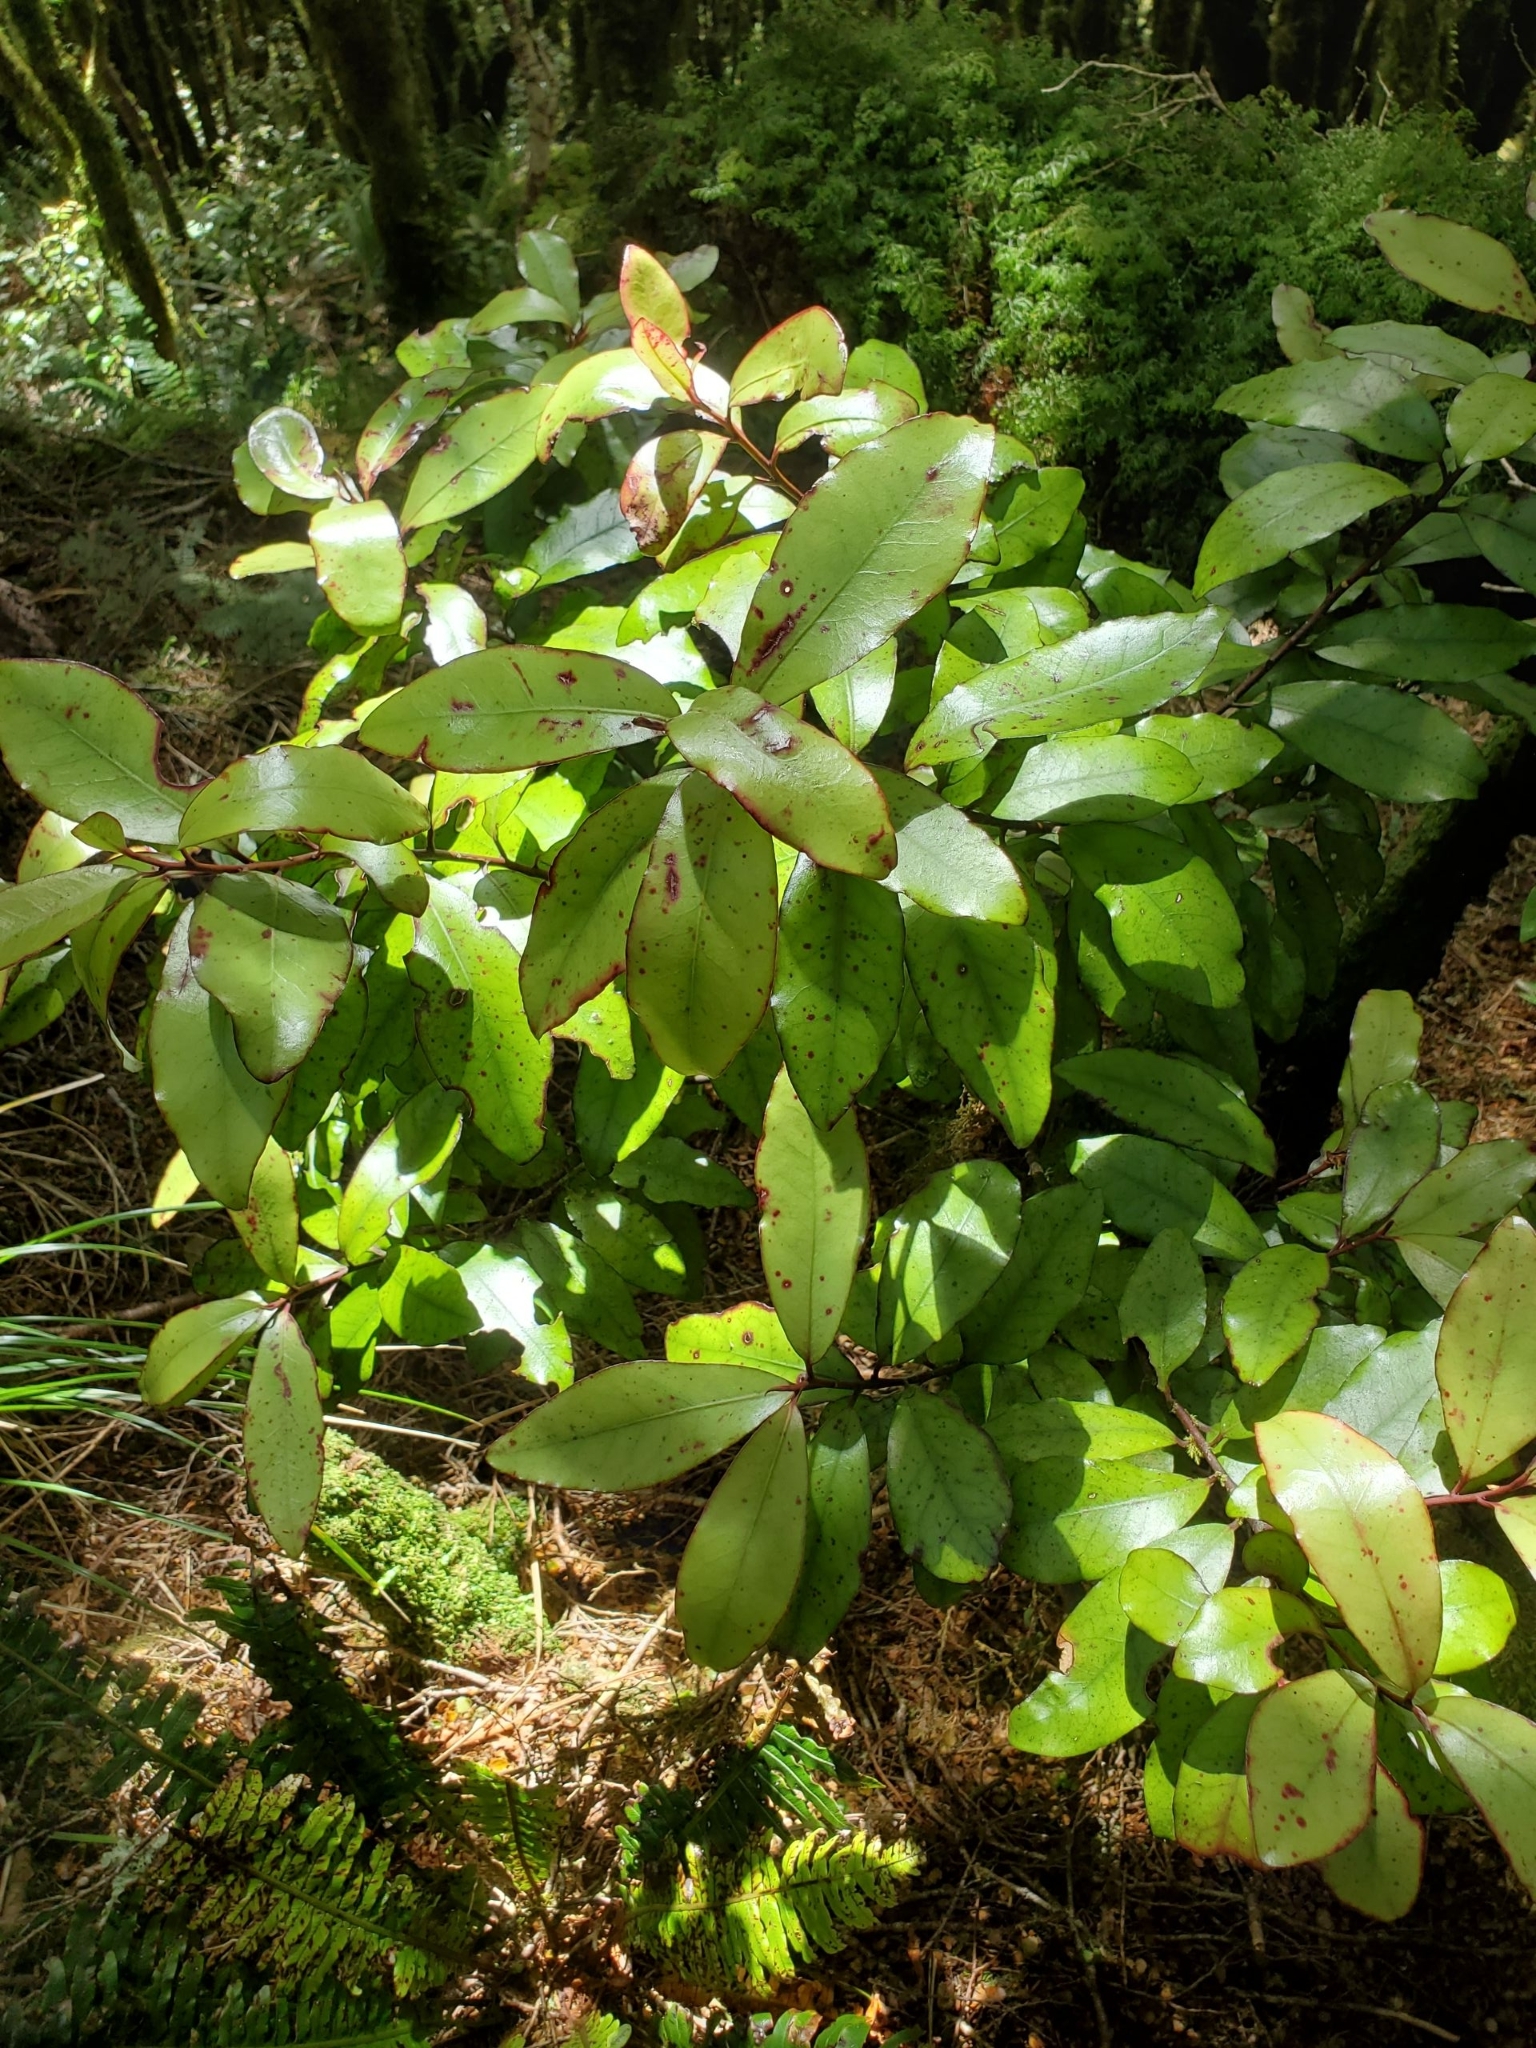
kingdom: Plantae
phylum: Tracheophyta
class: Magnoliopsida
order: Canellales
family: Winteraceae
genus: Pseudowintera
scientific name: Pseudowintera colorata
